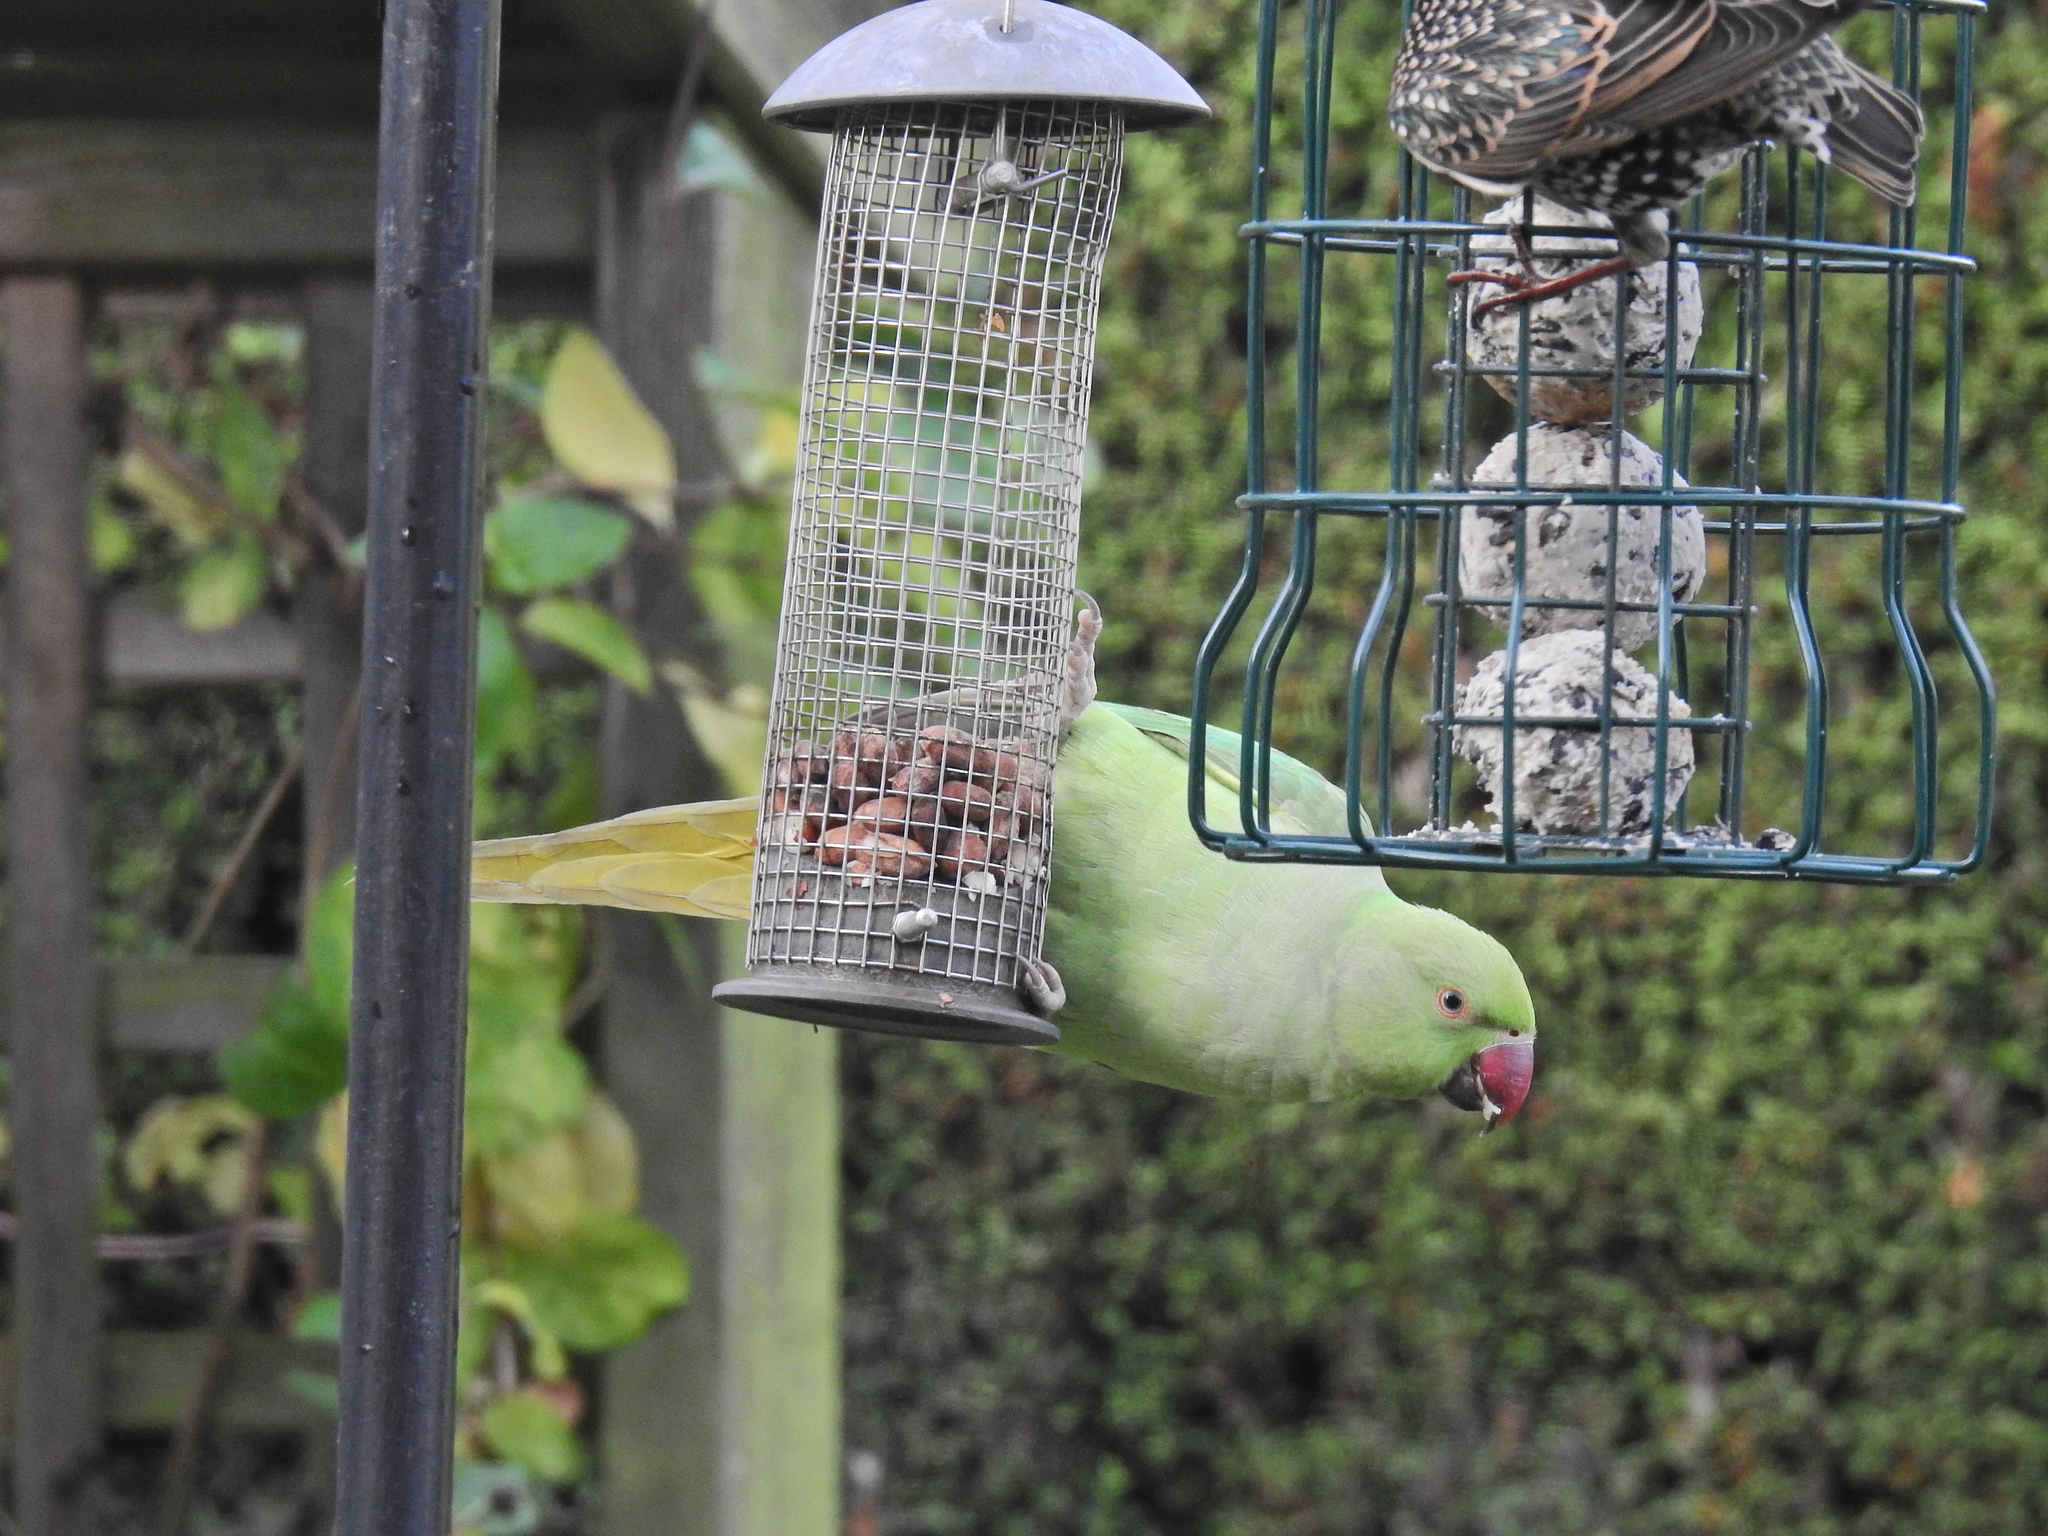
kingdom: Animalia
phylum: Chordata
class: Aves
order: Psittaciformes
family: Psittacidae
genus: Psittacula
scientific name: Psittacula krameri
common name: Rose-ringed parakeet
